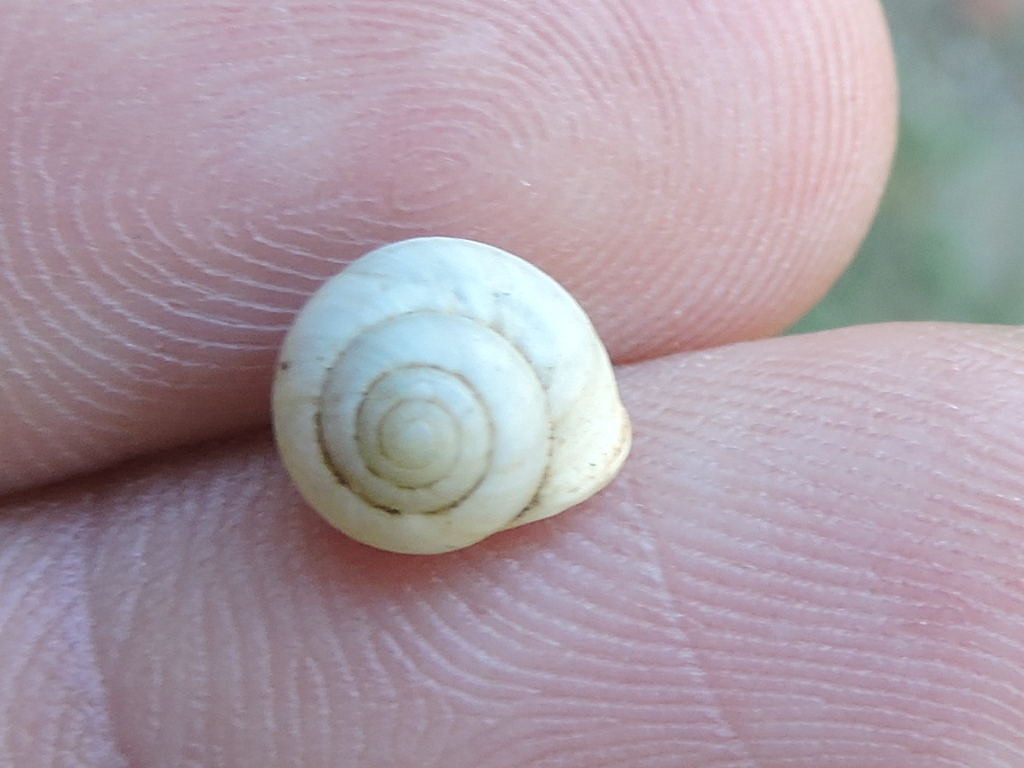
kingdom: Animalia
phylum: Mollusca
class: Gastropoda
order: Cycloneritida
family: Helicinidae
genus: Helicina
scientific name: Helicina orbiculata
